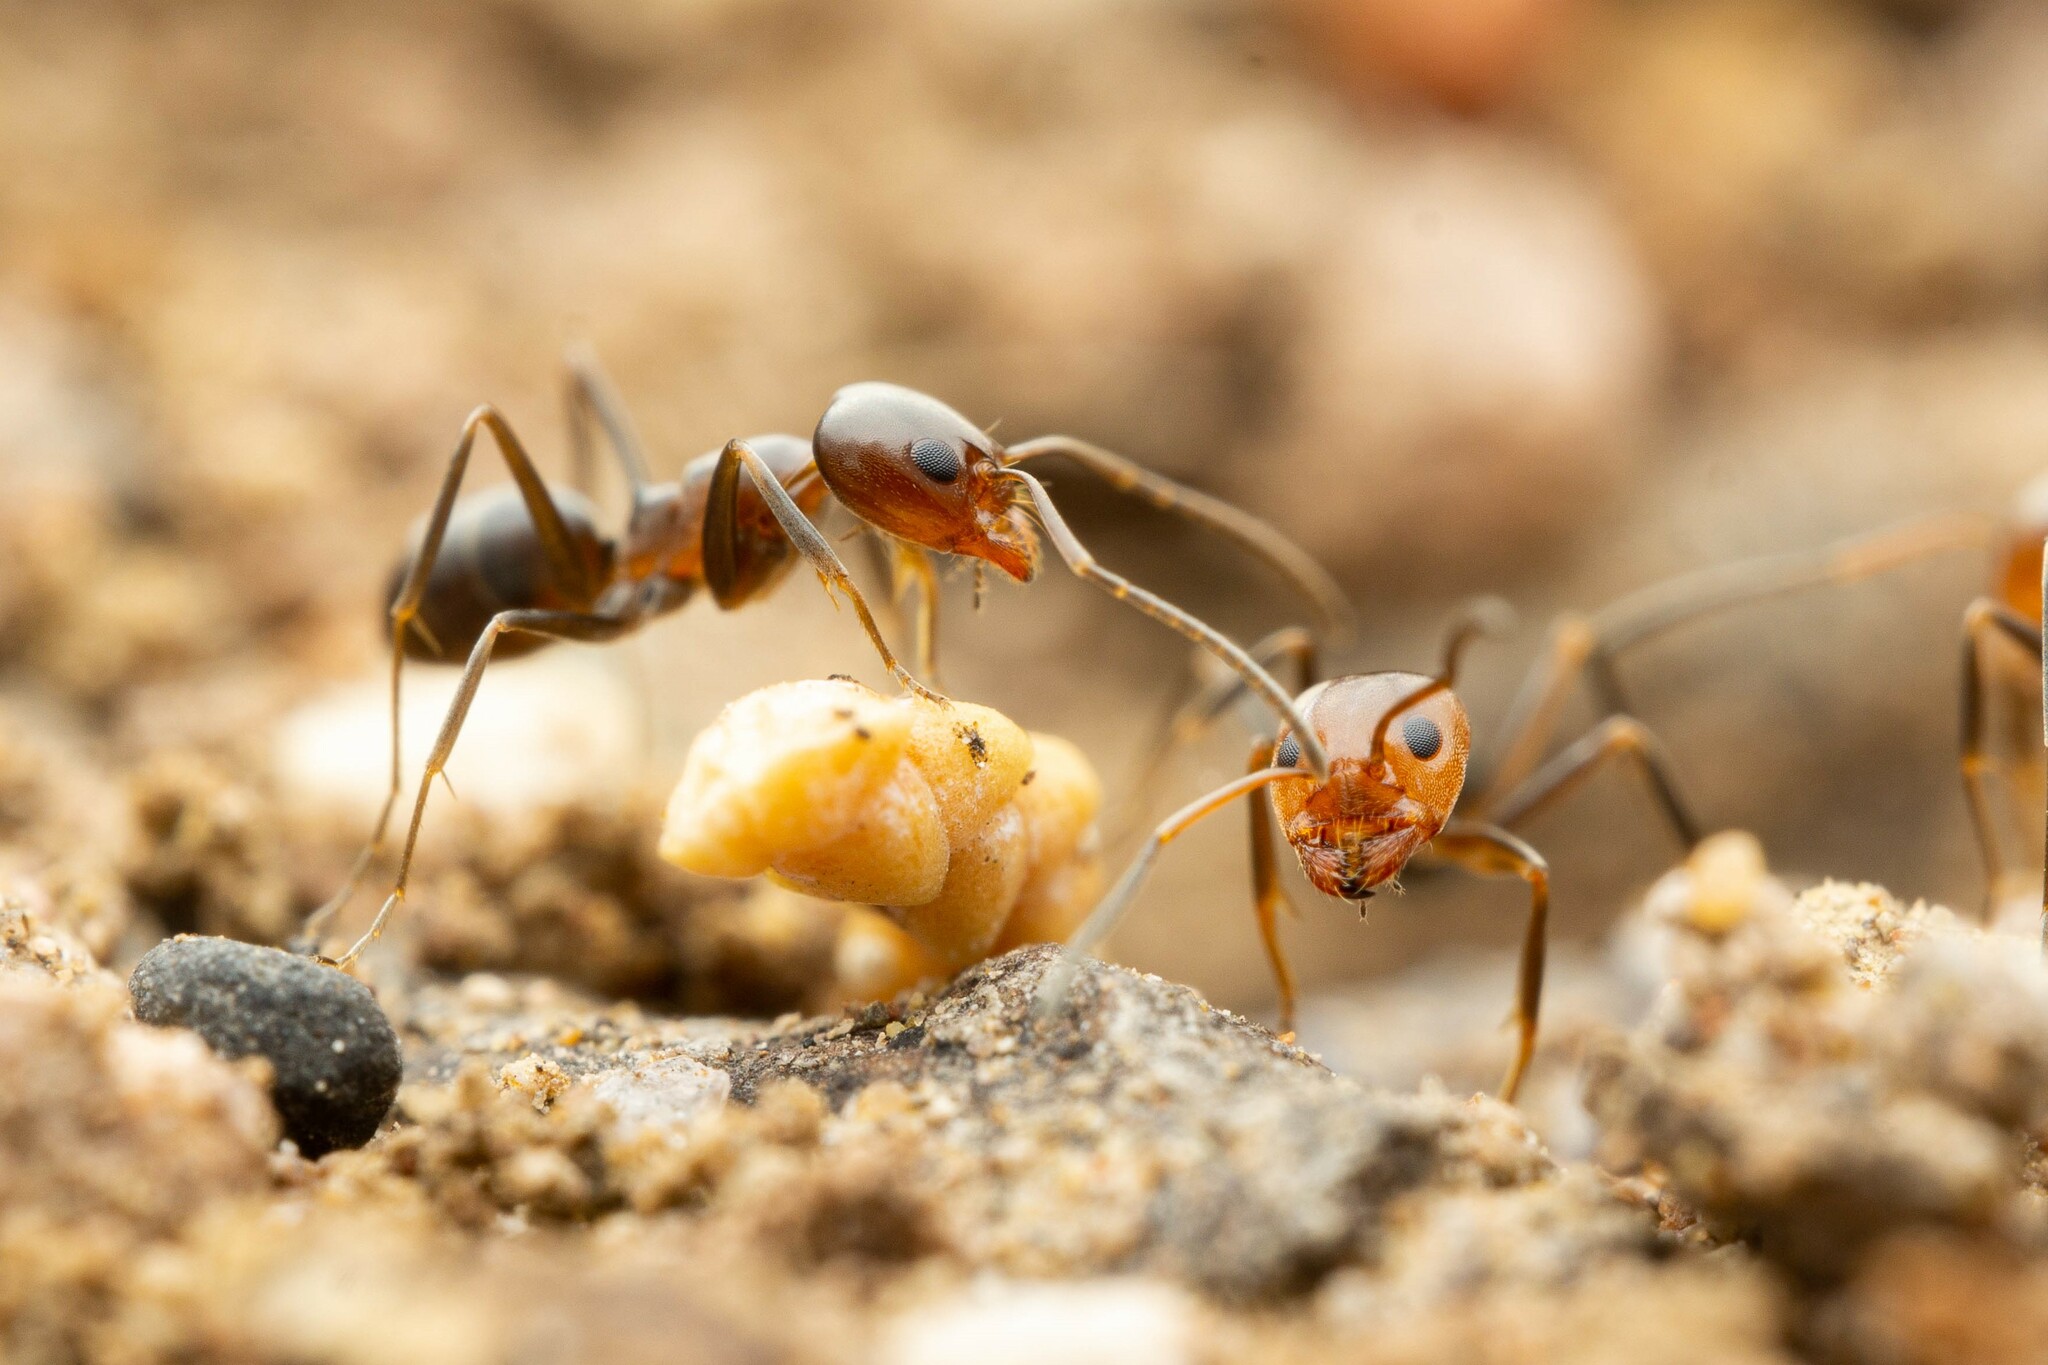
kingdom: Animalia
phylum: Arthropoda
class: Insecta
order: Hymenoptera
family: Formicidae
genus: Dorymyrmex
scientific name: Dorymyrmex
